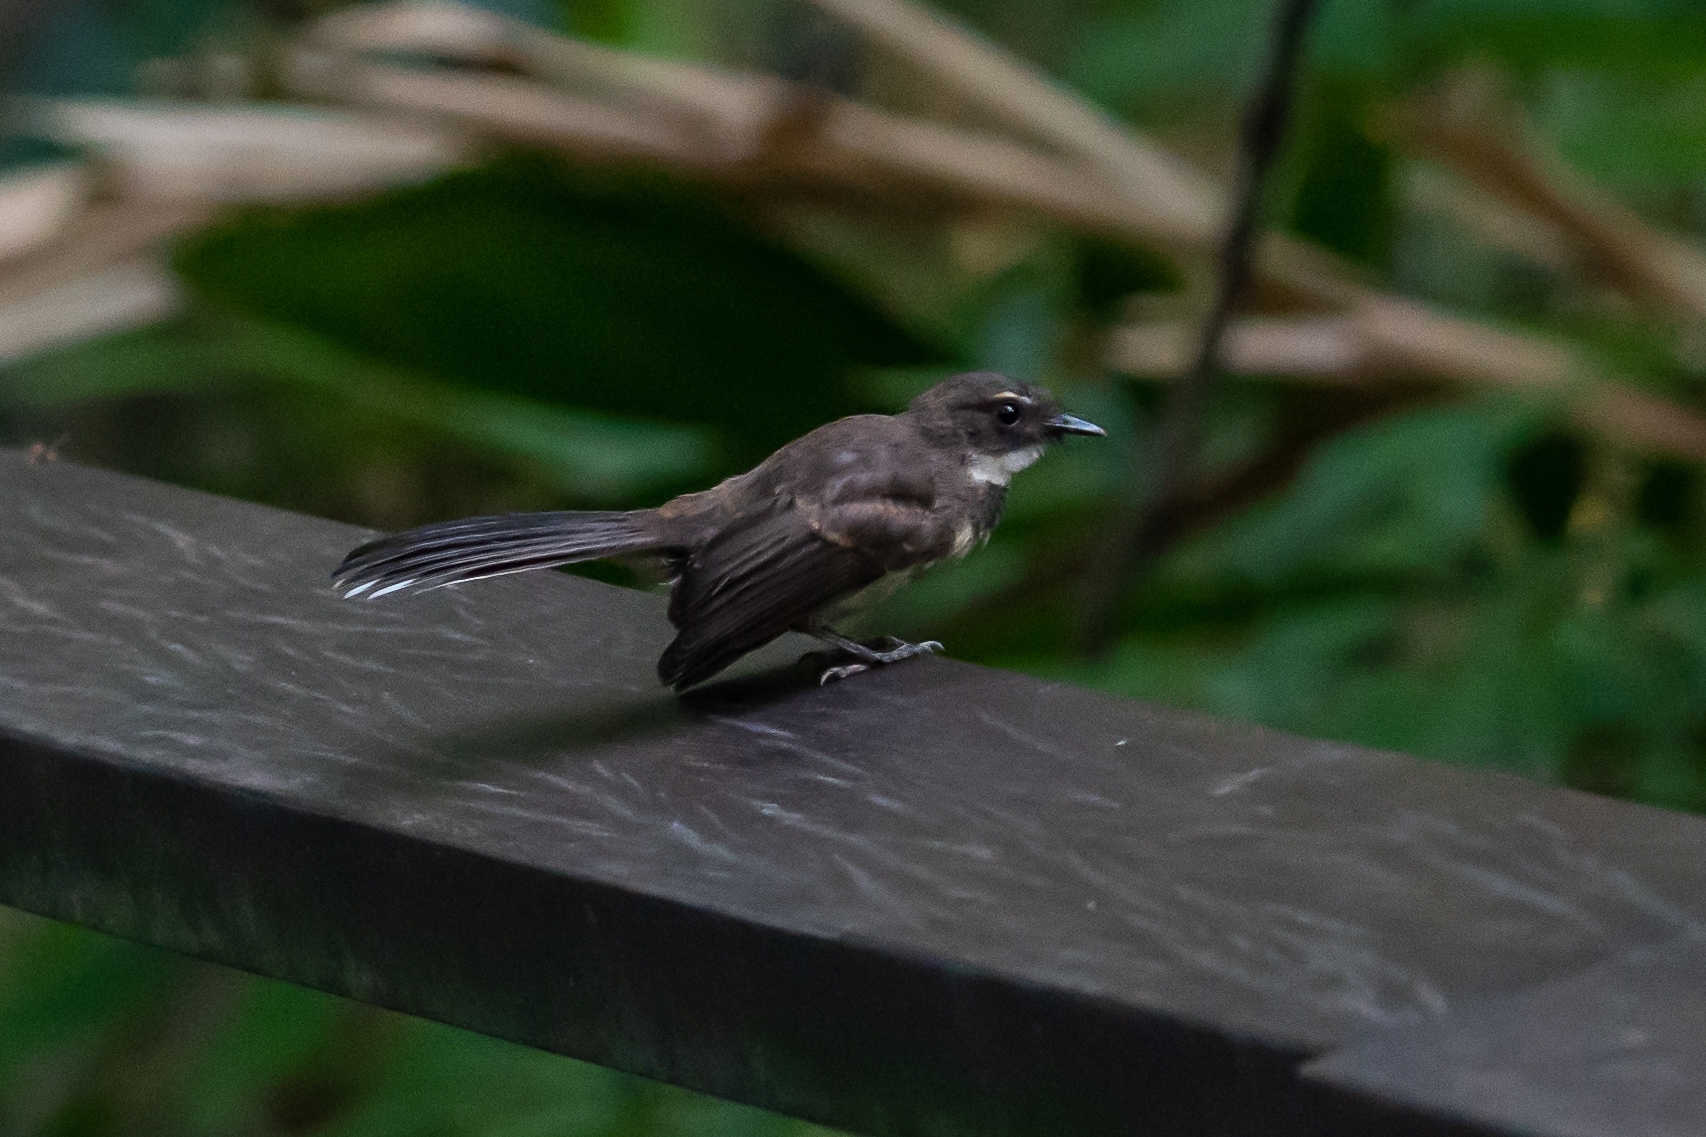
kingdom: Animalia
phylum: Chordata
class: Aves
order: Passeriformes
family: Rhipiduridae
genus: Rhipidura
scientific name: Rhipidura javanica
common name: Pied fantail
